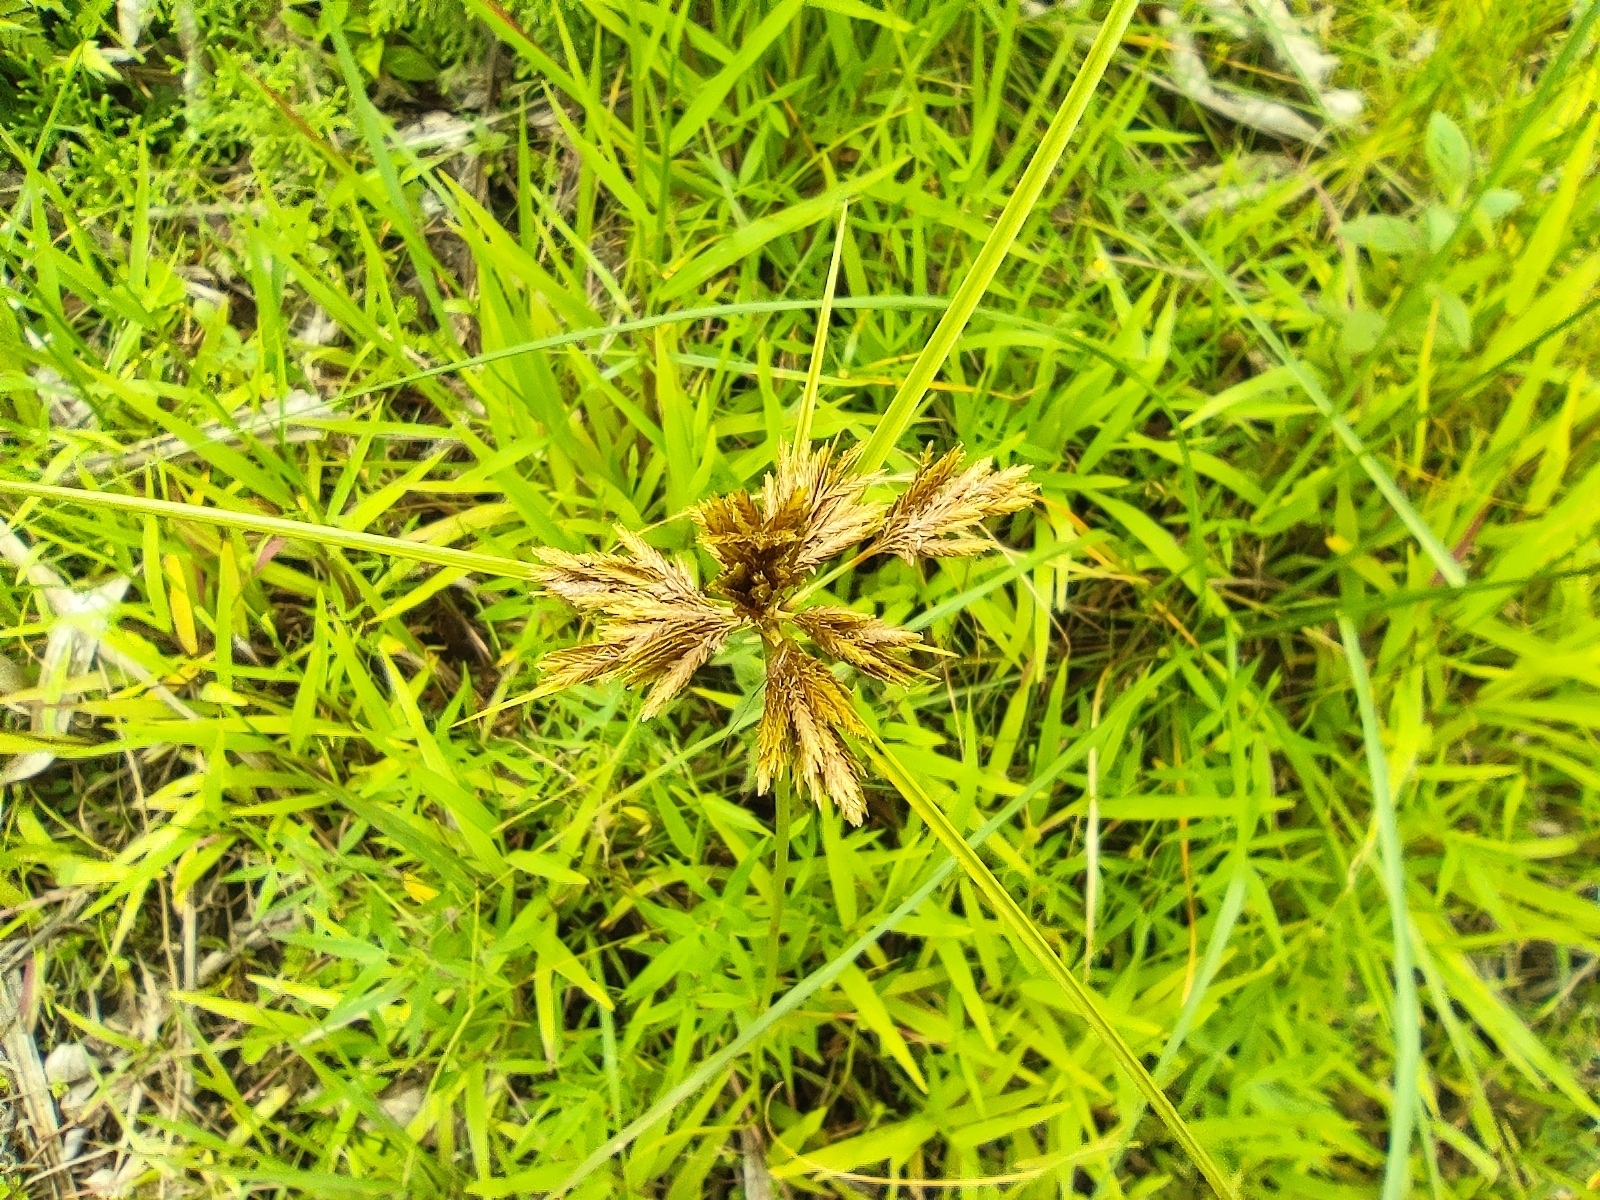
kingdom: Plantae
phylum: Tracheophyta
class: Liliopsida
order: Poales
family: Cyperaceae
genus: Cyperus
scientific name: Cyperus polystachyos
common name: Bunchy flat sedge
